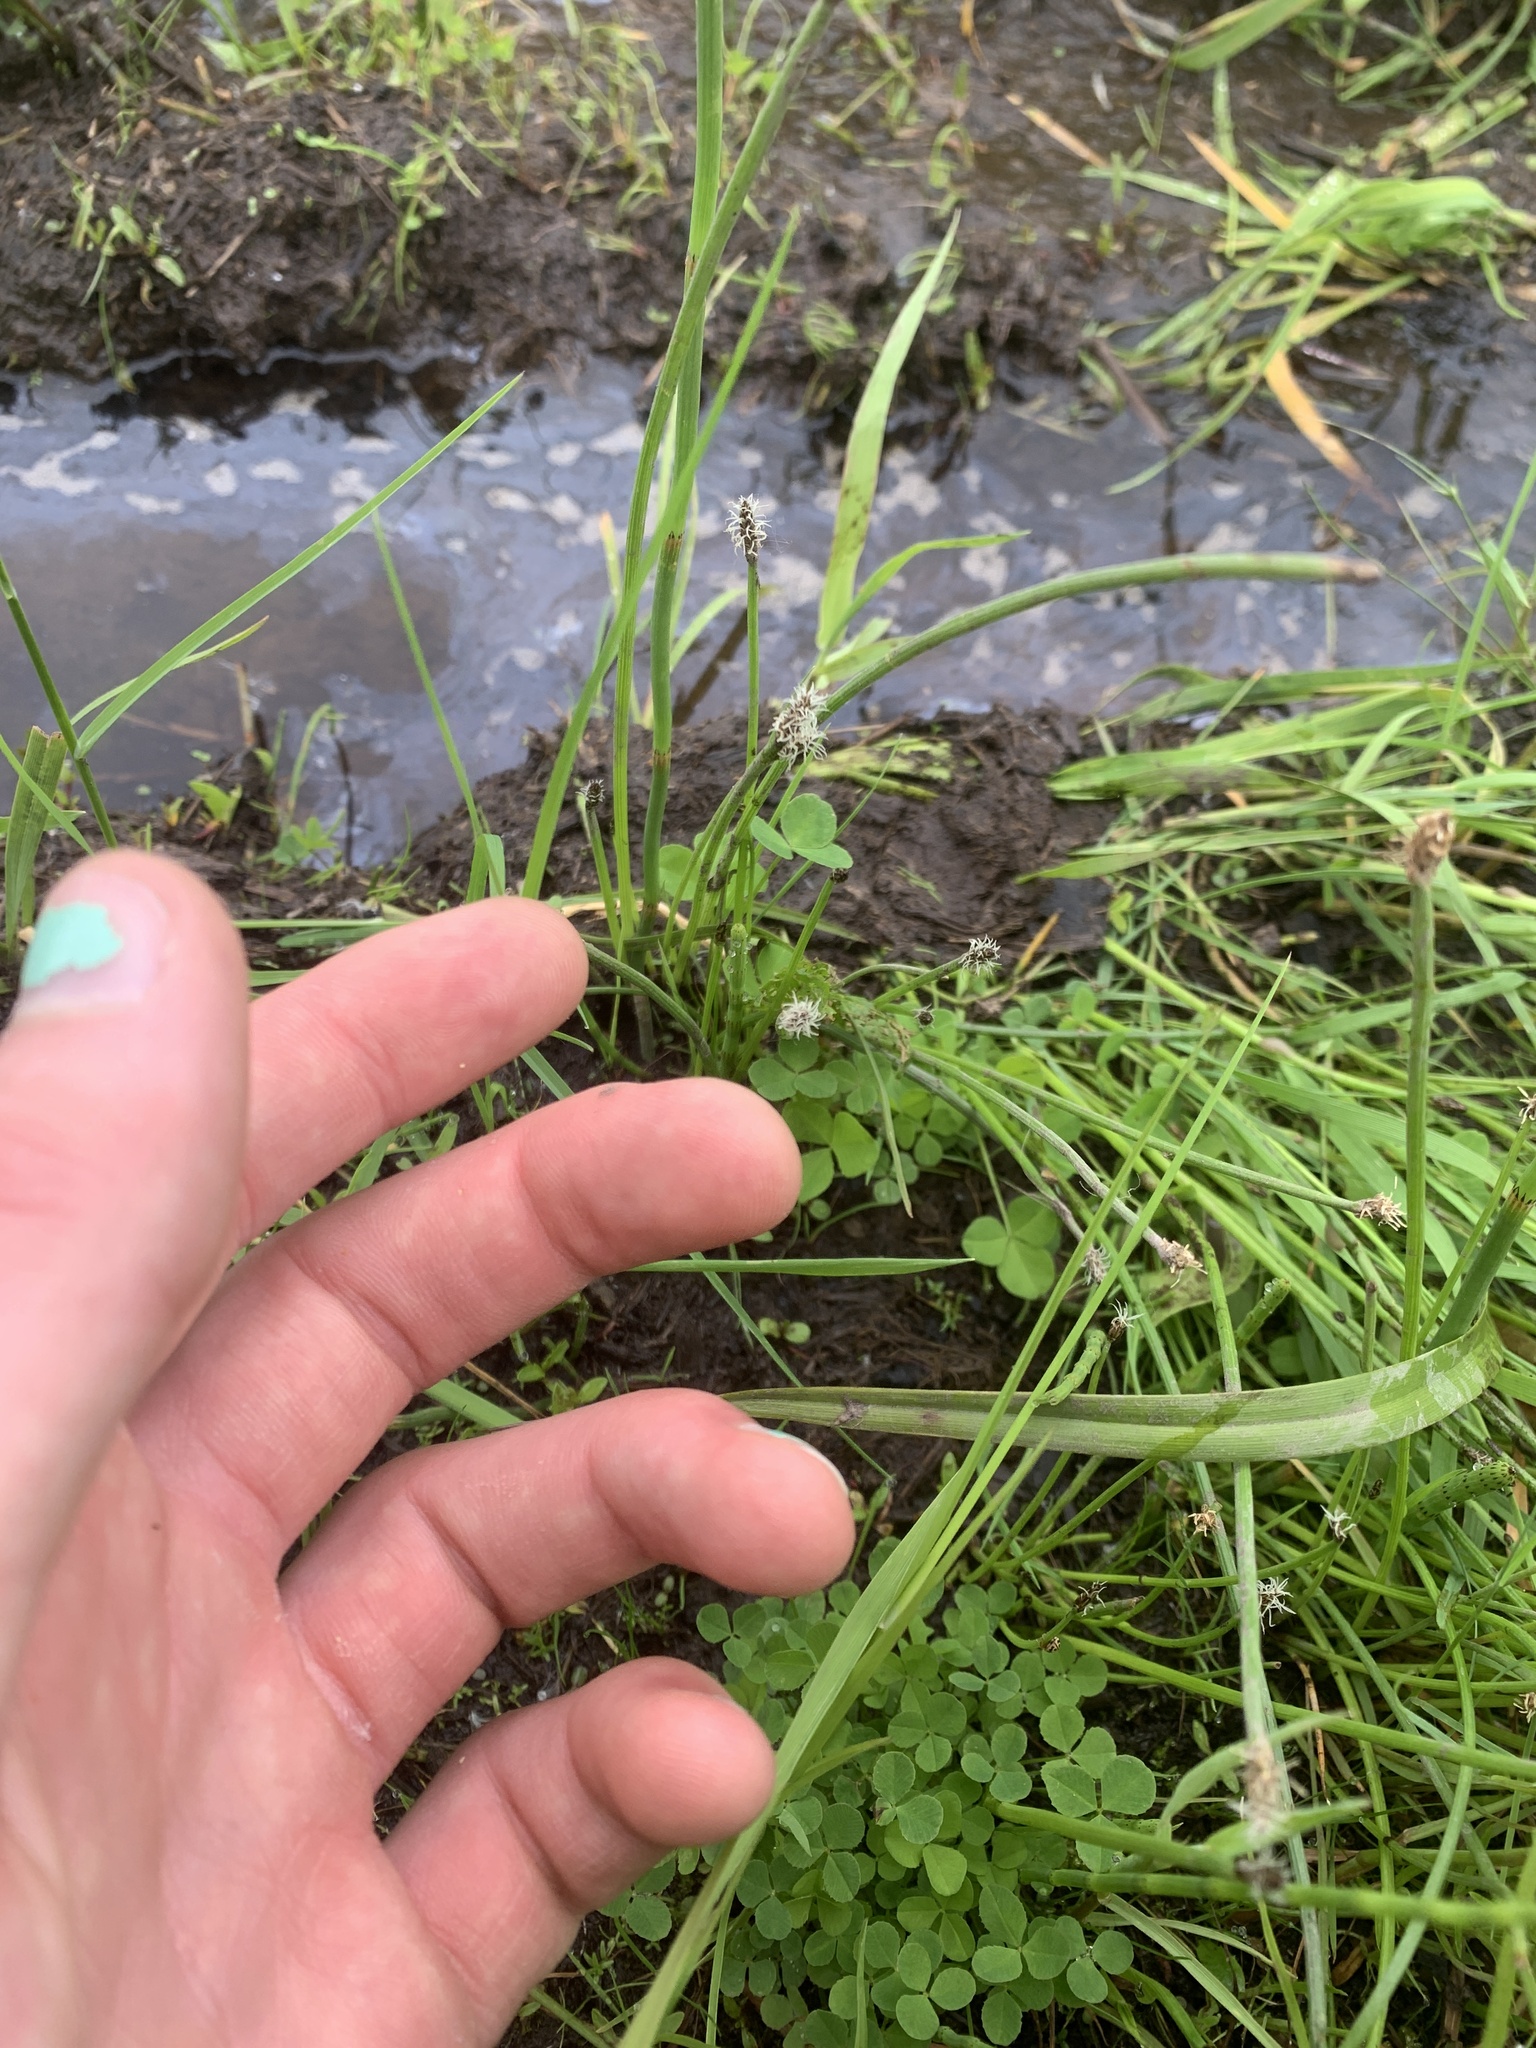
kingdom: Plantae
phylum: Tracheophyta
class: Liliopsida
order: Poales
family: Poaceae
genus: Alopecurus
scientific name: Alopecurus aequalis
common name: Orange foxtail
